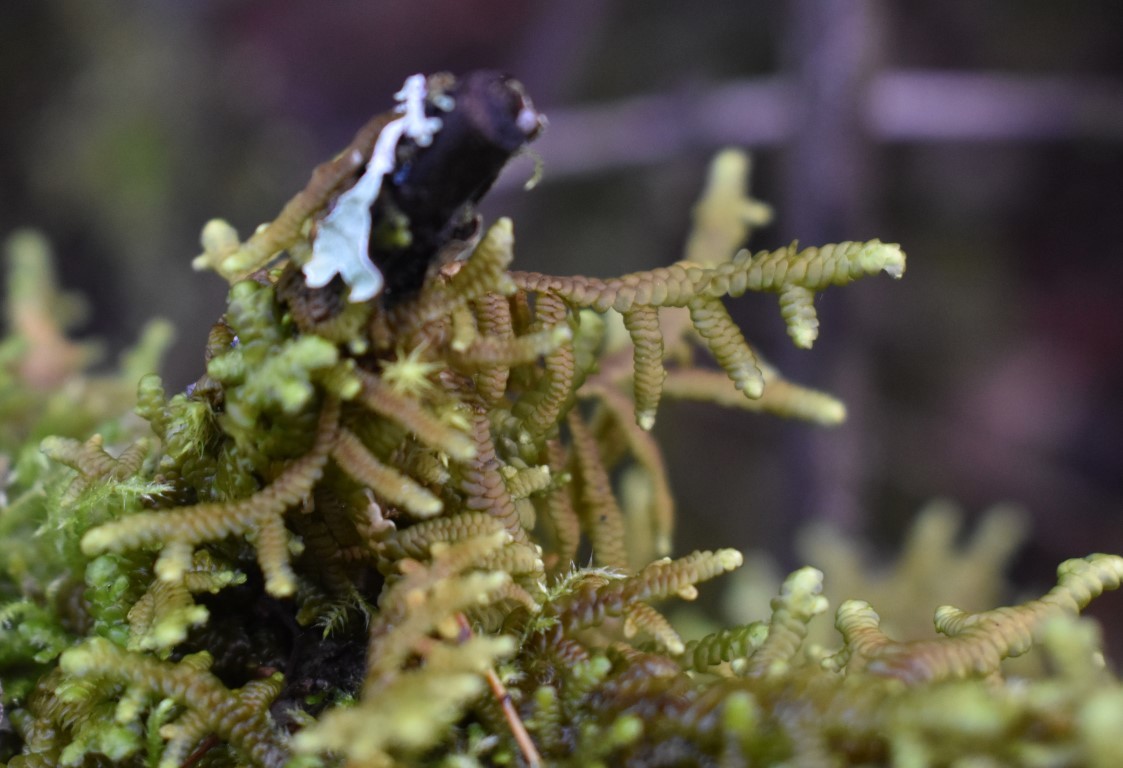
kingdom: Plantae
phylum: Marchantiophyta
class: Jungermanniopsida
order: Porellales
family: Porellaceae
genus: Porella
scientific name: Porella navicularis
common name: Tree ruffle liverwort
